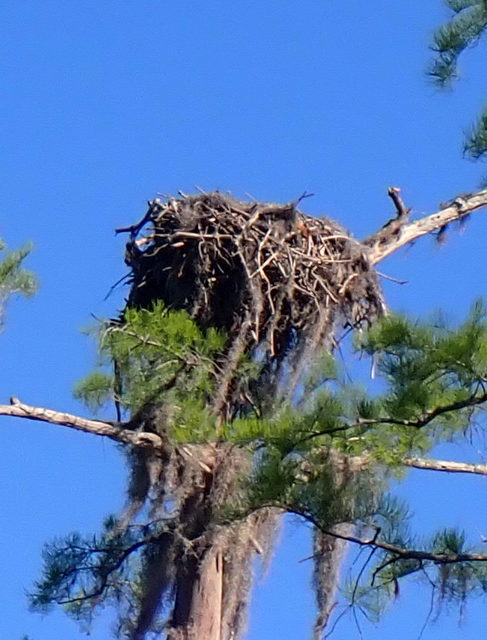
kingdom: Animalia
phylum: Chordata
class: Aves
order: Accipitriformes
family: Pandionidae
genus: Pandion
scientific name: Pandion haliaetus
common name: Osprey
